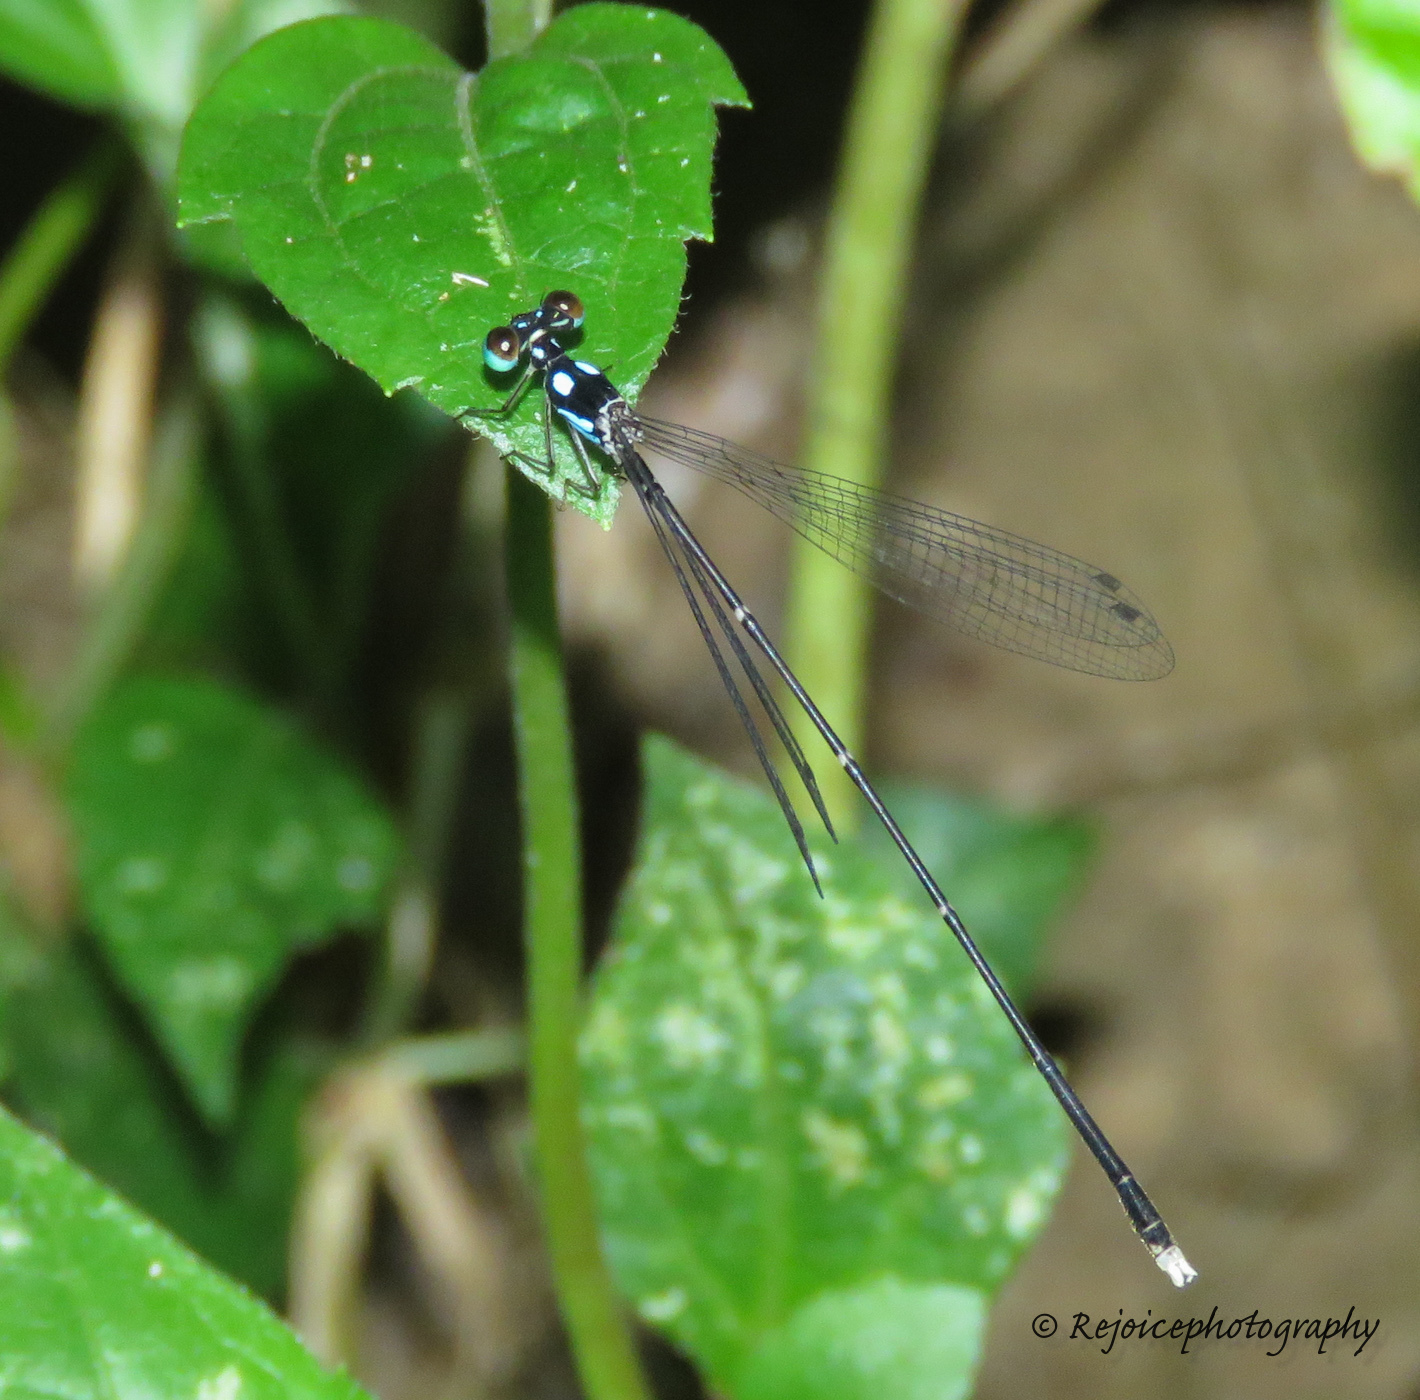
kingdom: Animalia
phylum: Arthropoda
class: Insecta
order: Odonata
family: Platycnemididae
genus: Coeliccia
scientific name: Coeliccia bimaculata
